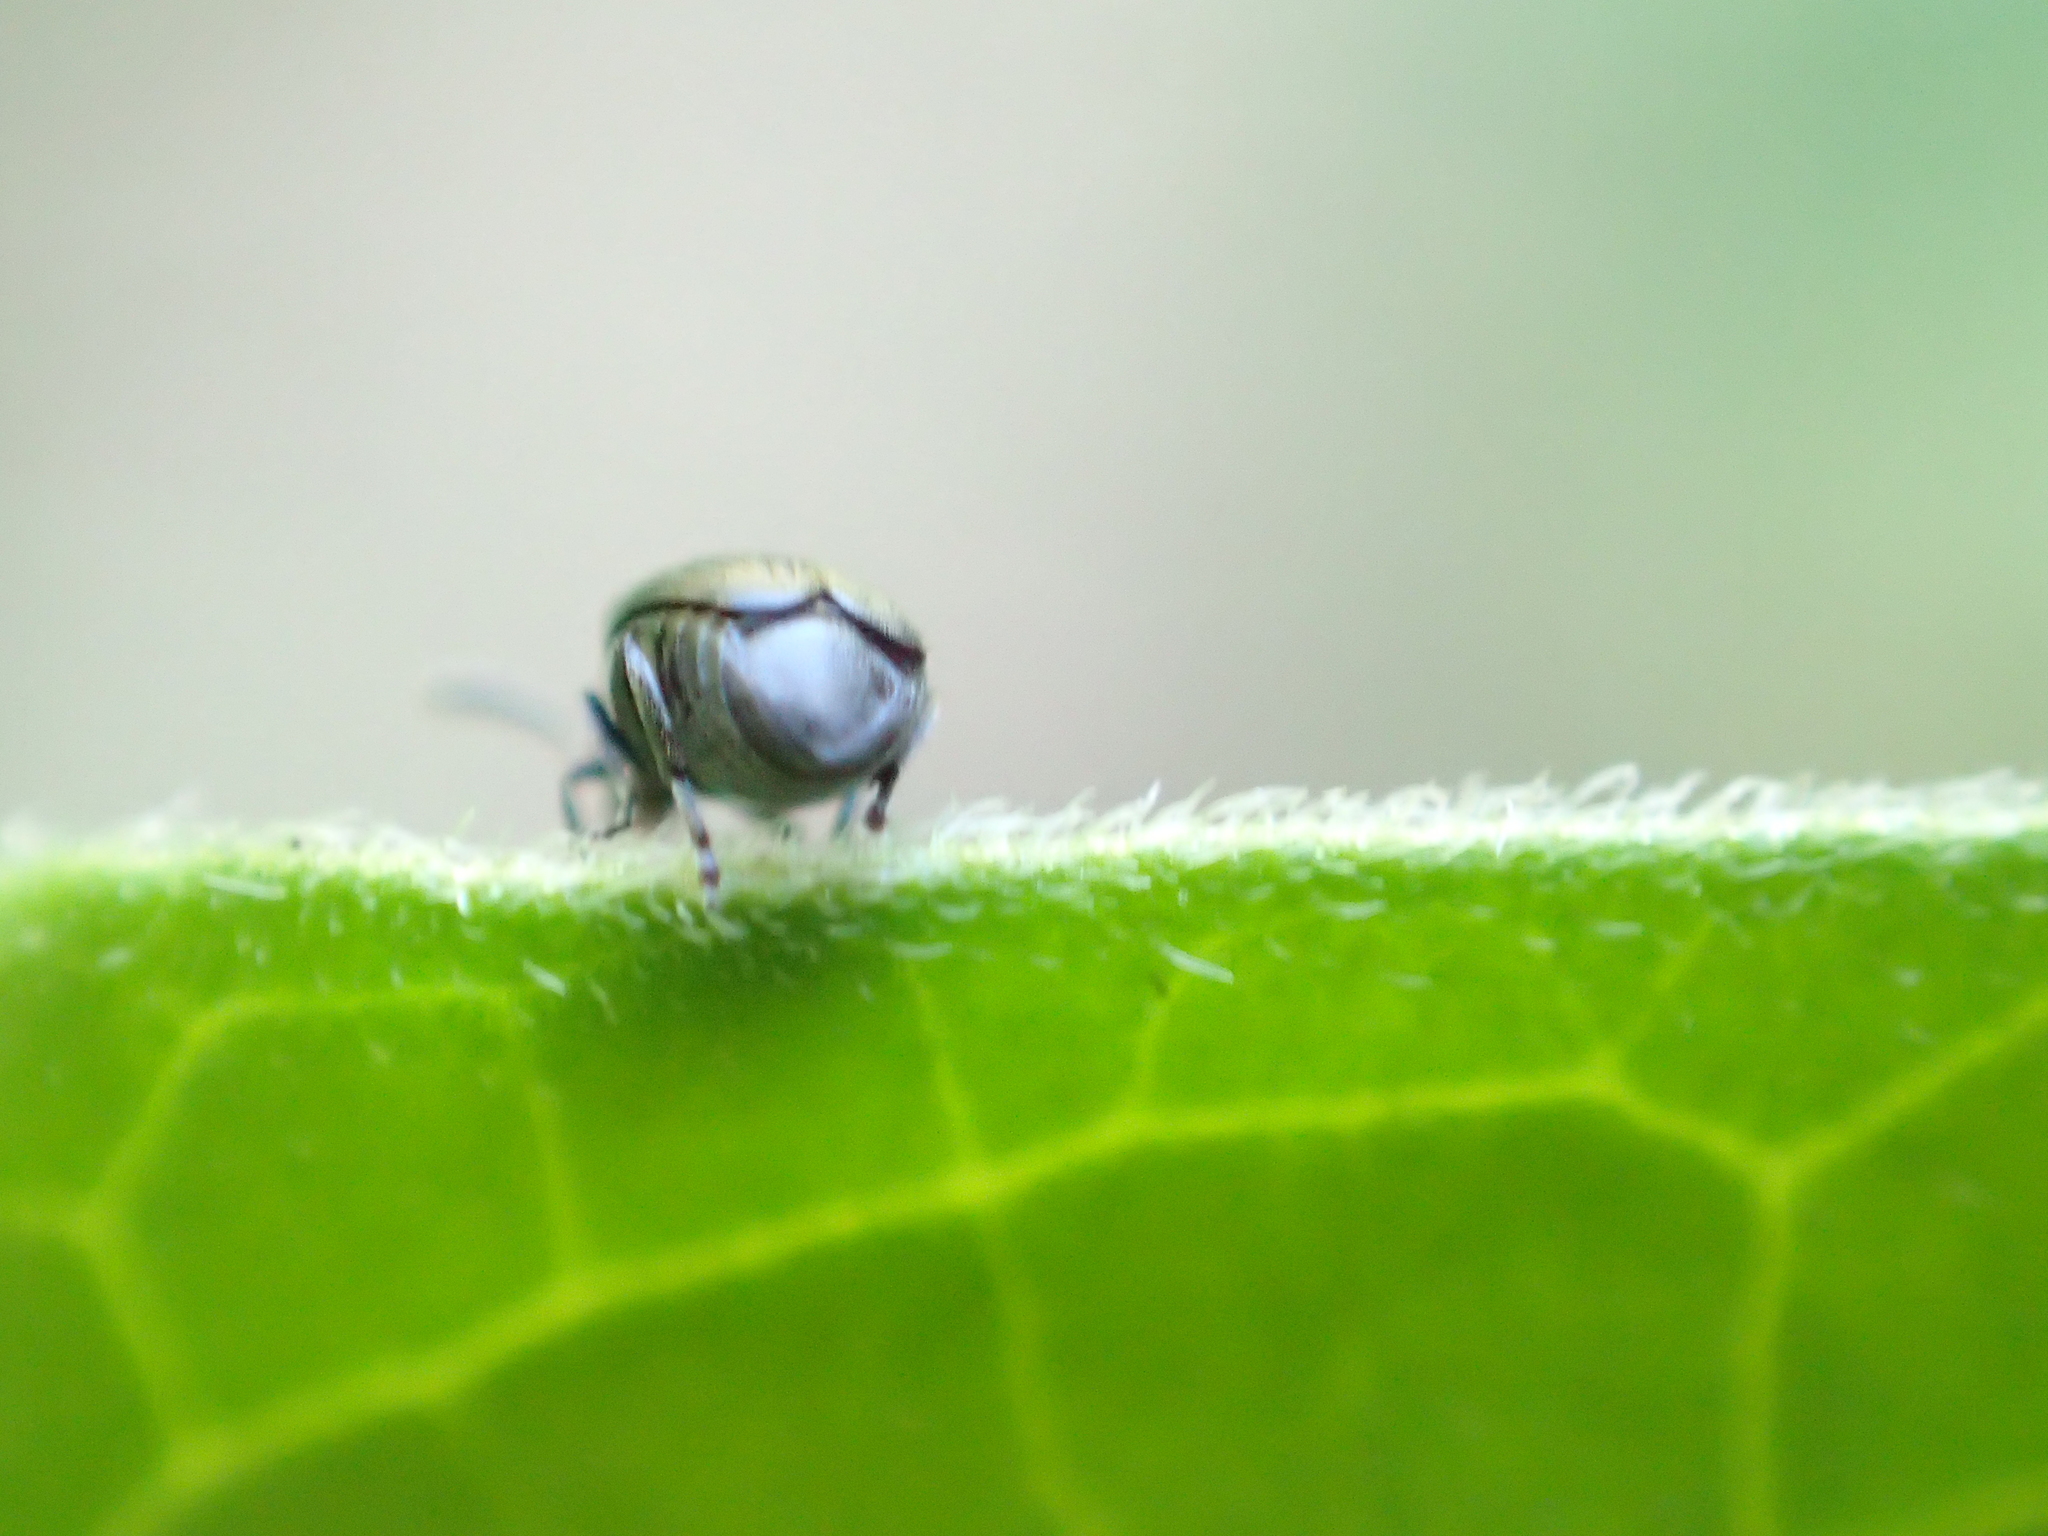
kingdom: Animalia
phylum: Arthropoda
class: Insecta
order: Coleoptera
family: Chrysomelidae
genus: Bruchidius
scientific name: Bruchidius villosus
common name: Scotch broom bruchid
